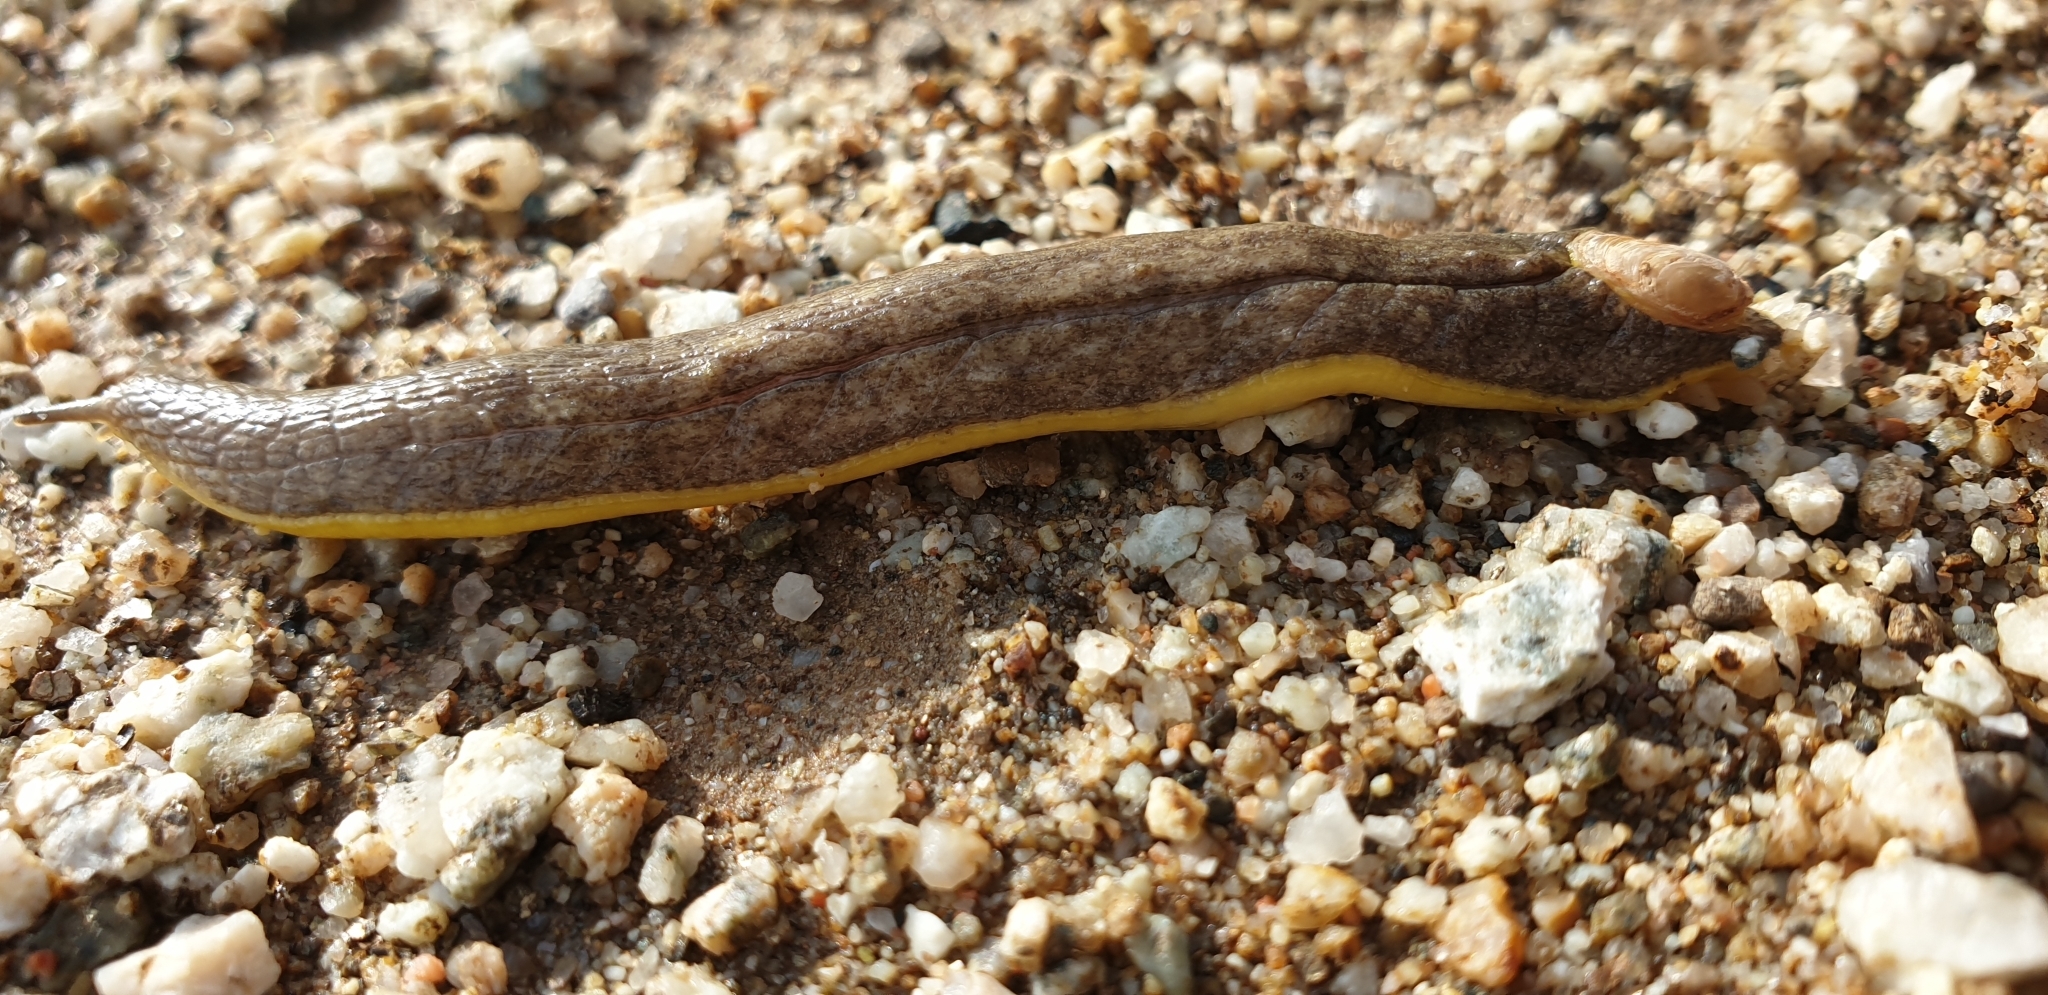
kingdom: Animalia
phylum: Mollusca
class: Gastropoda
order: Stylommatophora
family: Testacellidae
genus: Testacella
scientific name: Testacella maugei
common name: Mauge's slug
